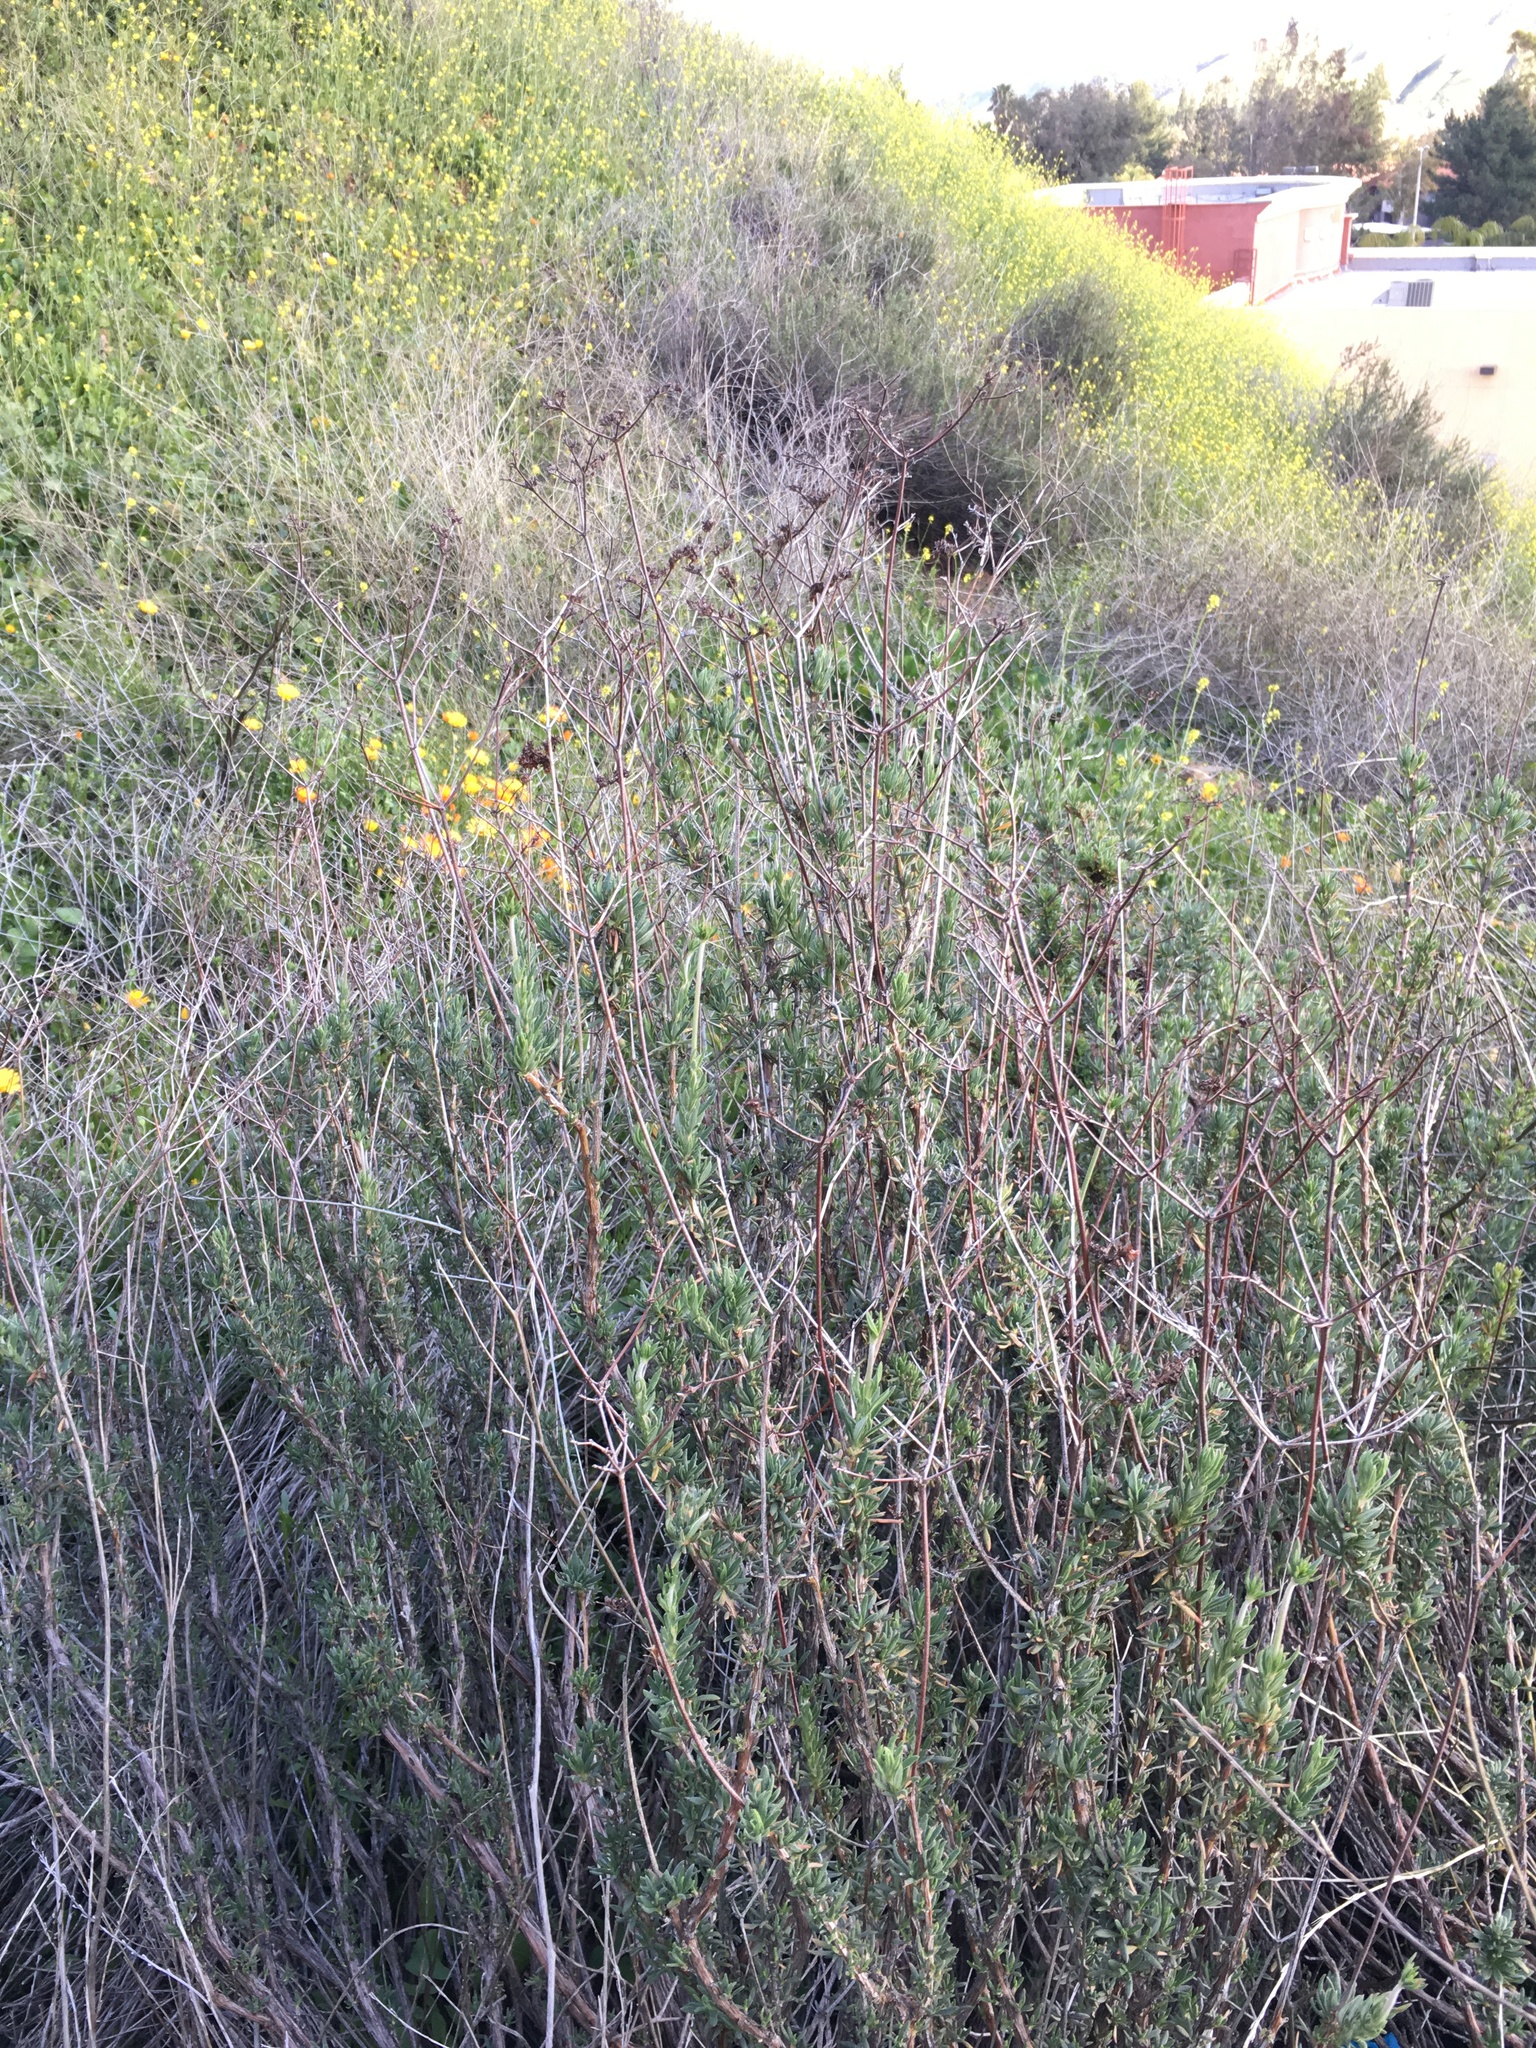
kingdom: Plantae
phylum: Tracheophyta
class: Magnoliopsida
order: Caryophyllales
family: Polygonaceae
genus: Eriogonum
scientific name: Eriogonum fasciculatum
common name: California wild buckwheat
